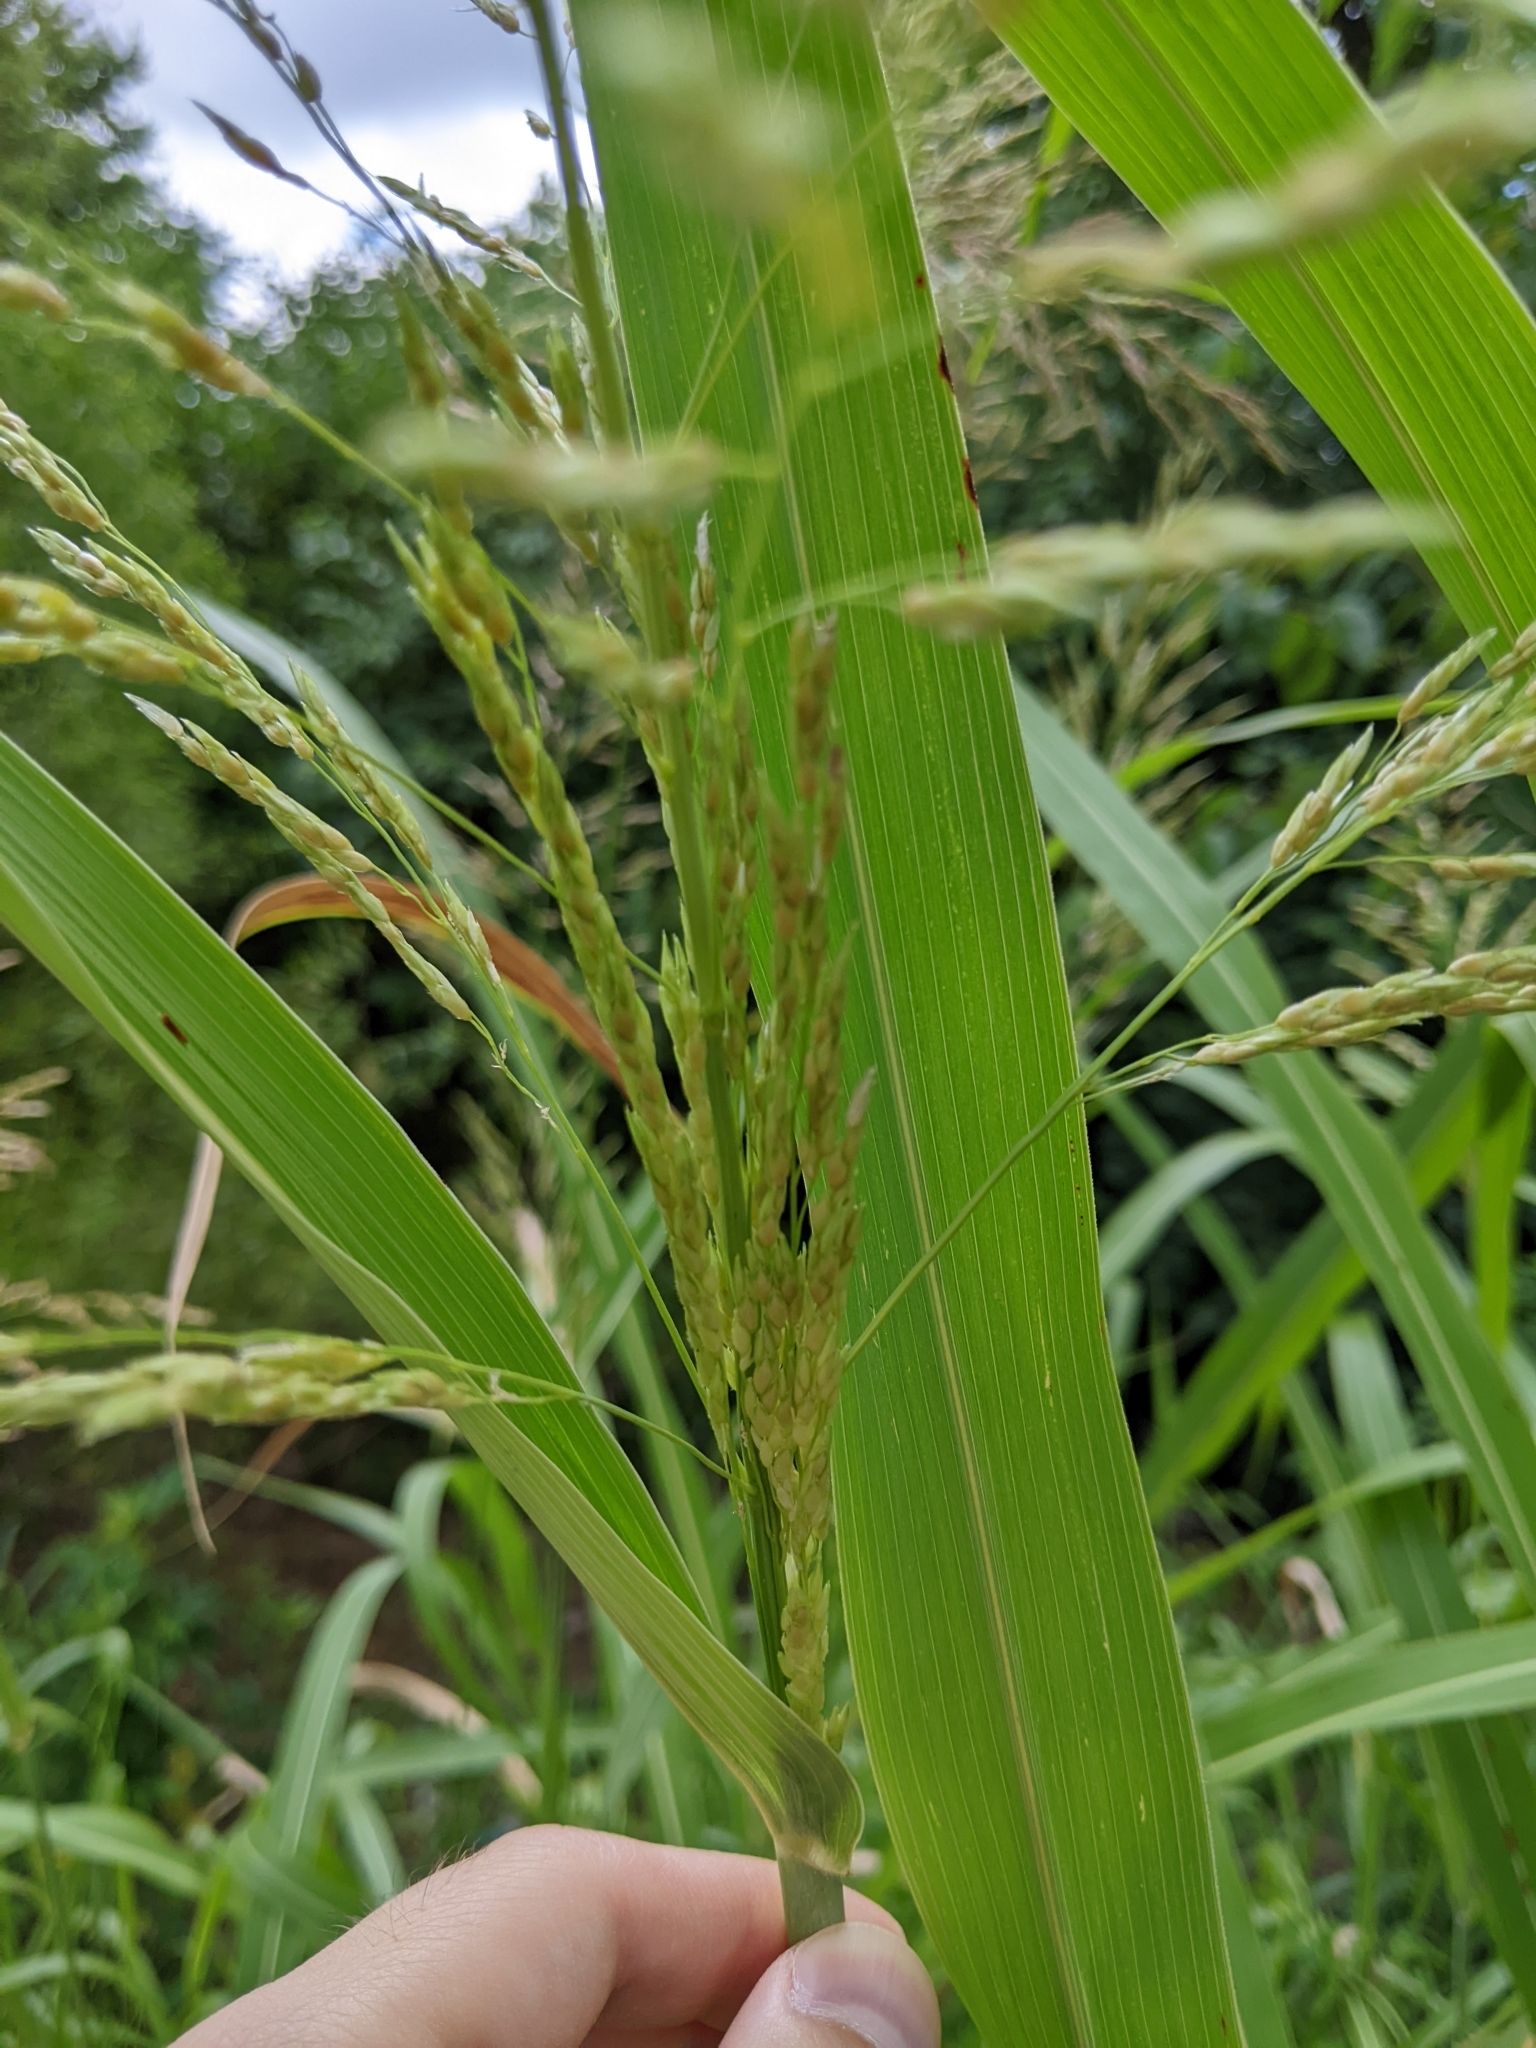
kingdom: Plantae
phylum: Tracheophyta
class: Liliopsida
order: Poales
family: Poaceae
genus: Sorghum
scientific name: Sorghum halepense
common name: Johnson-grass
